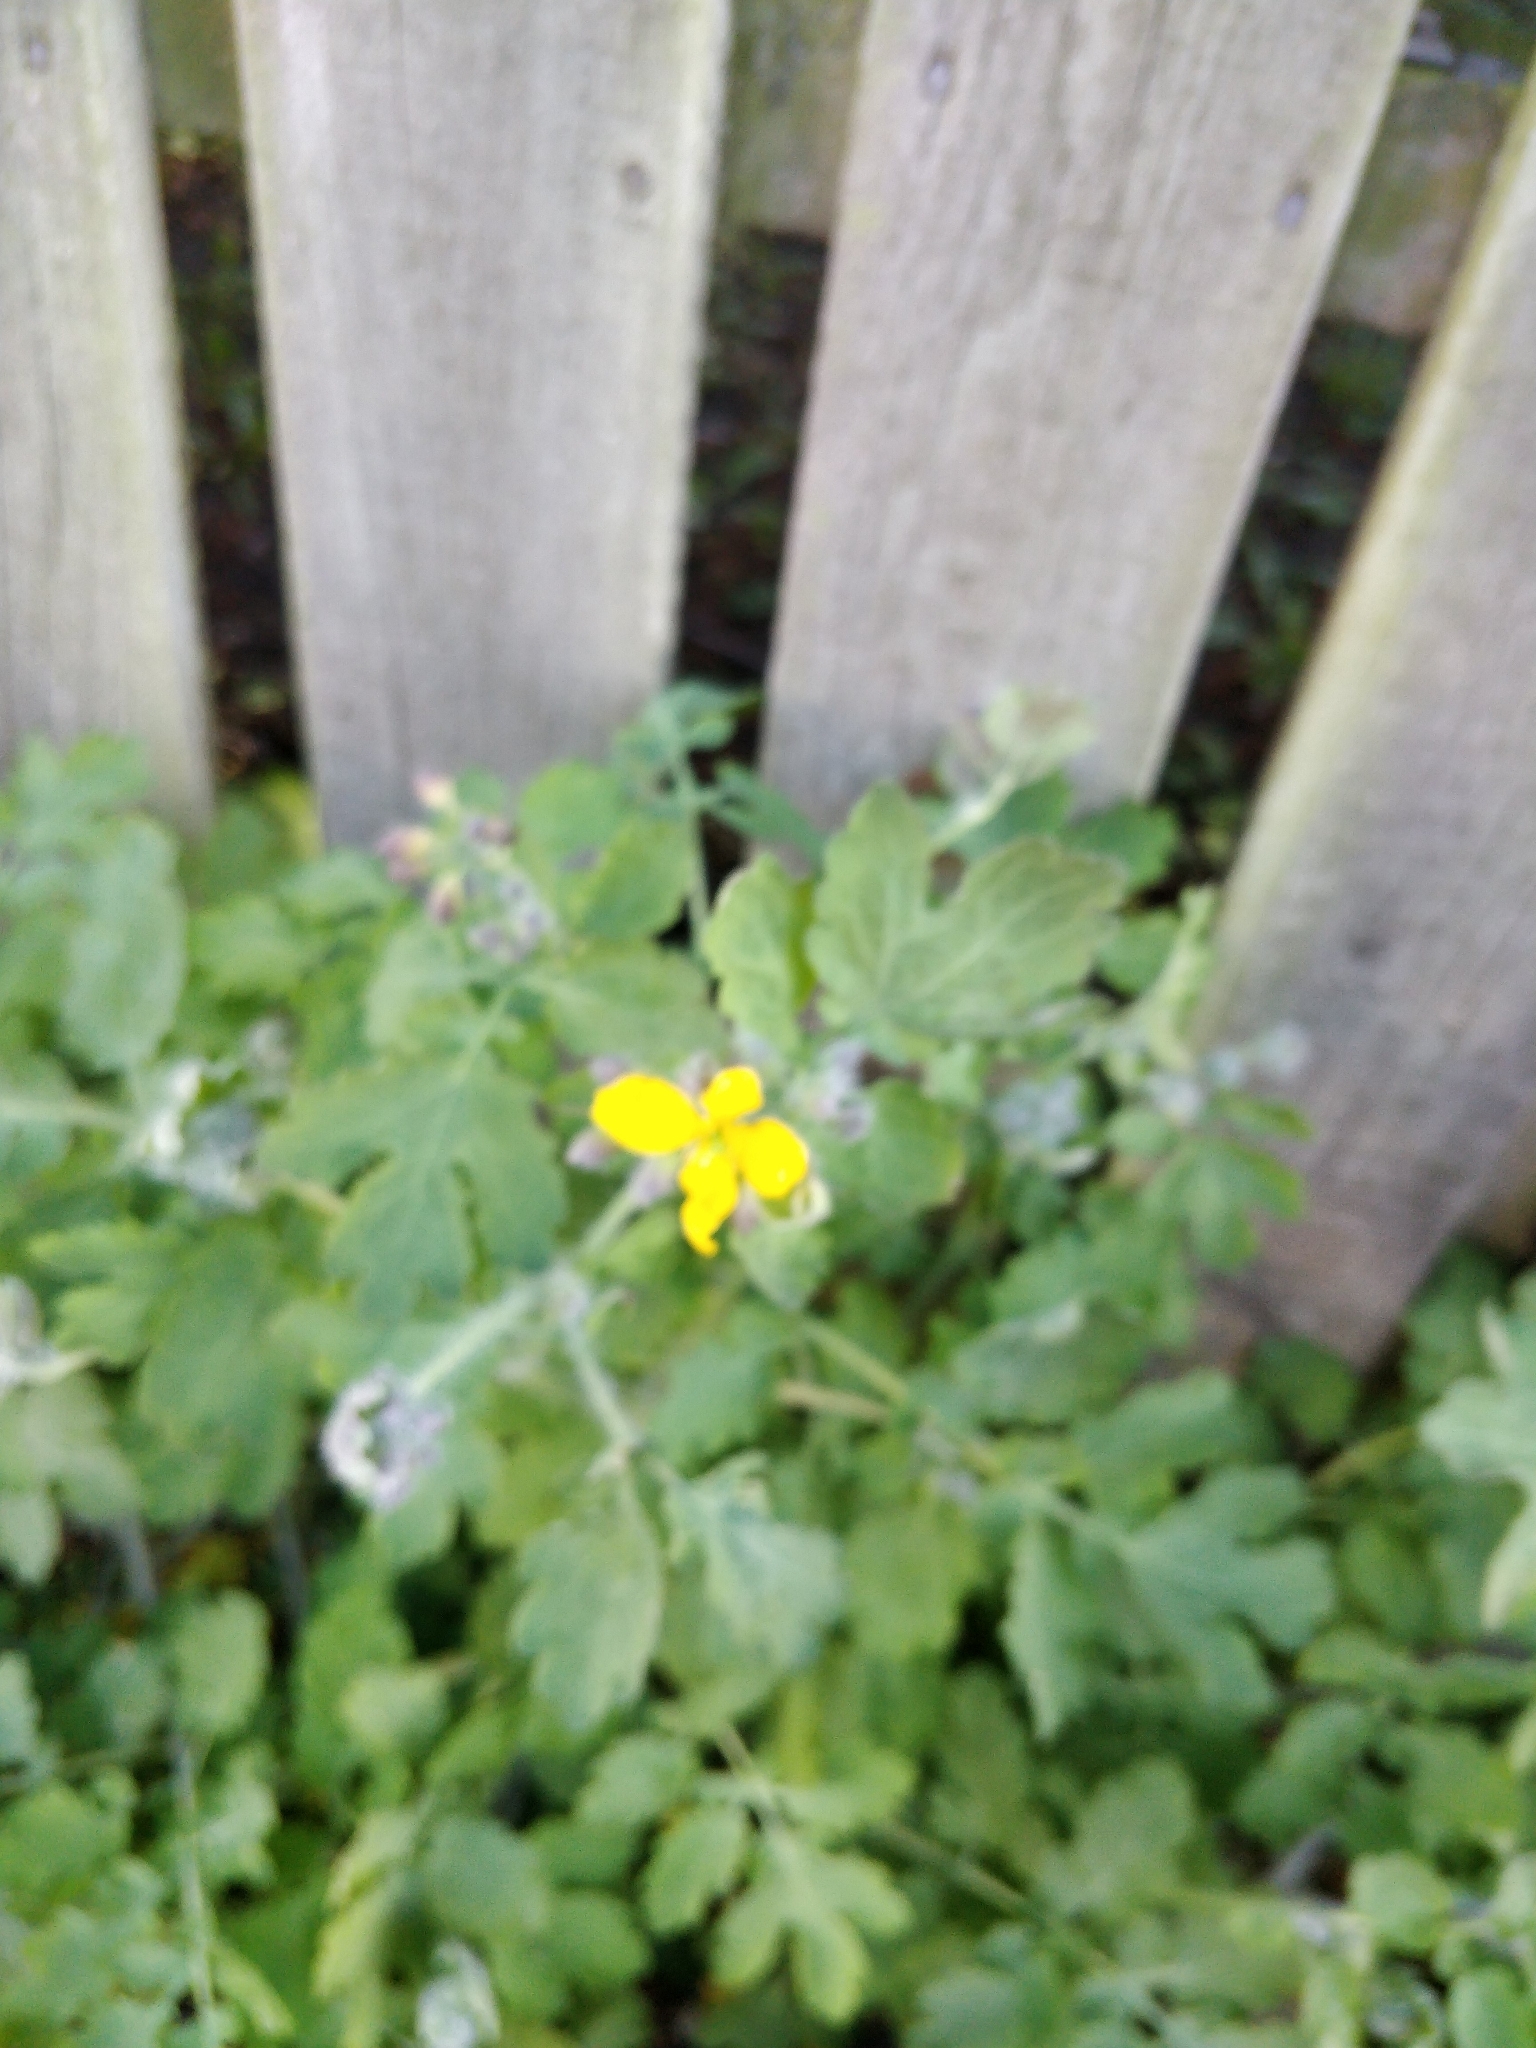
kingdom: Plantae
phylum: Tracheophyta
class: Magnoliopsida
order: Ranunculales
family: Papaveraceae
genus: Chelidonium
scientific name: Chelidonium majus
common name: Greater celandine
